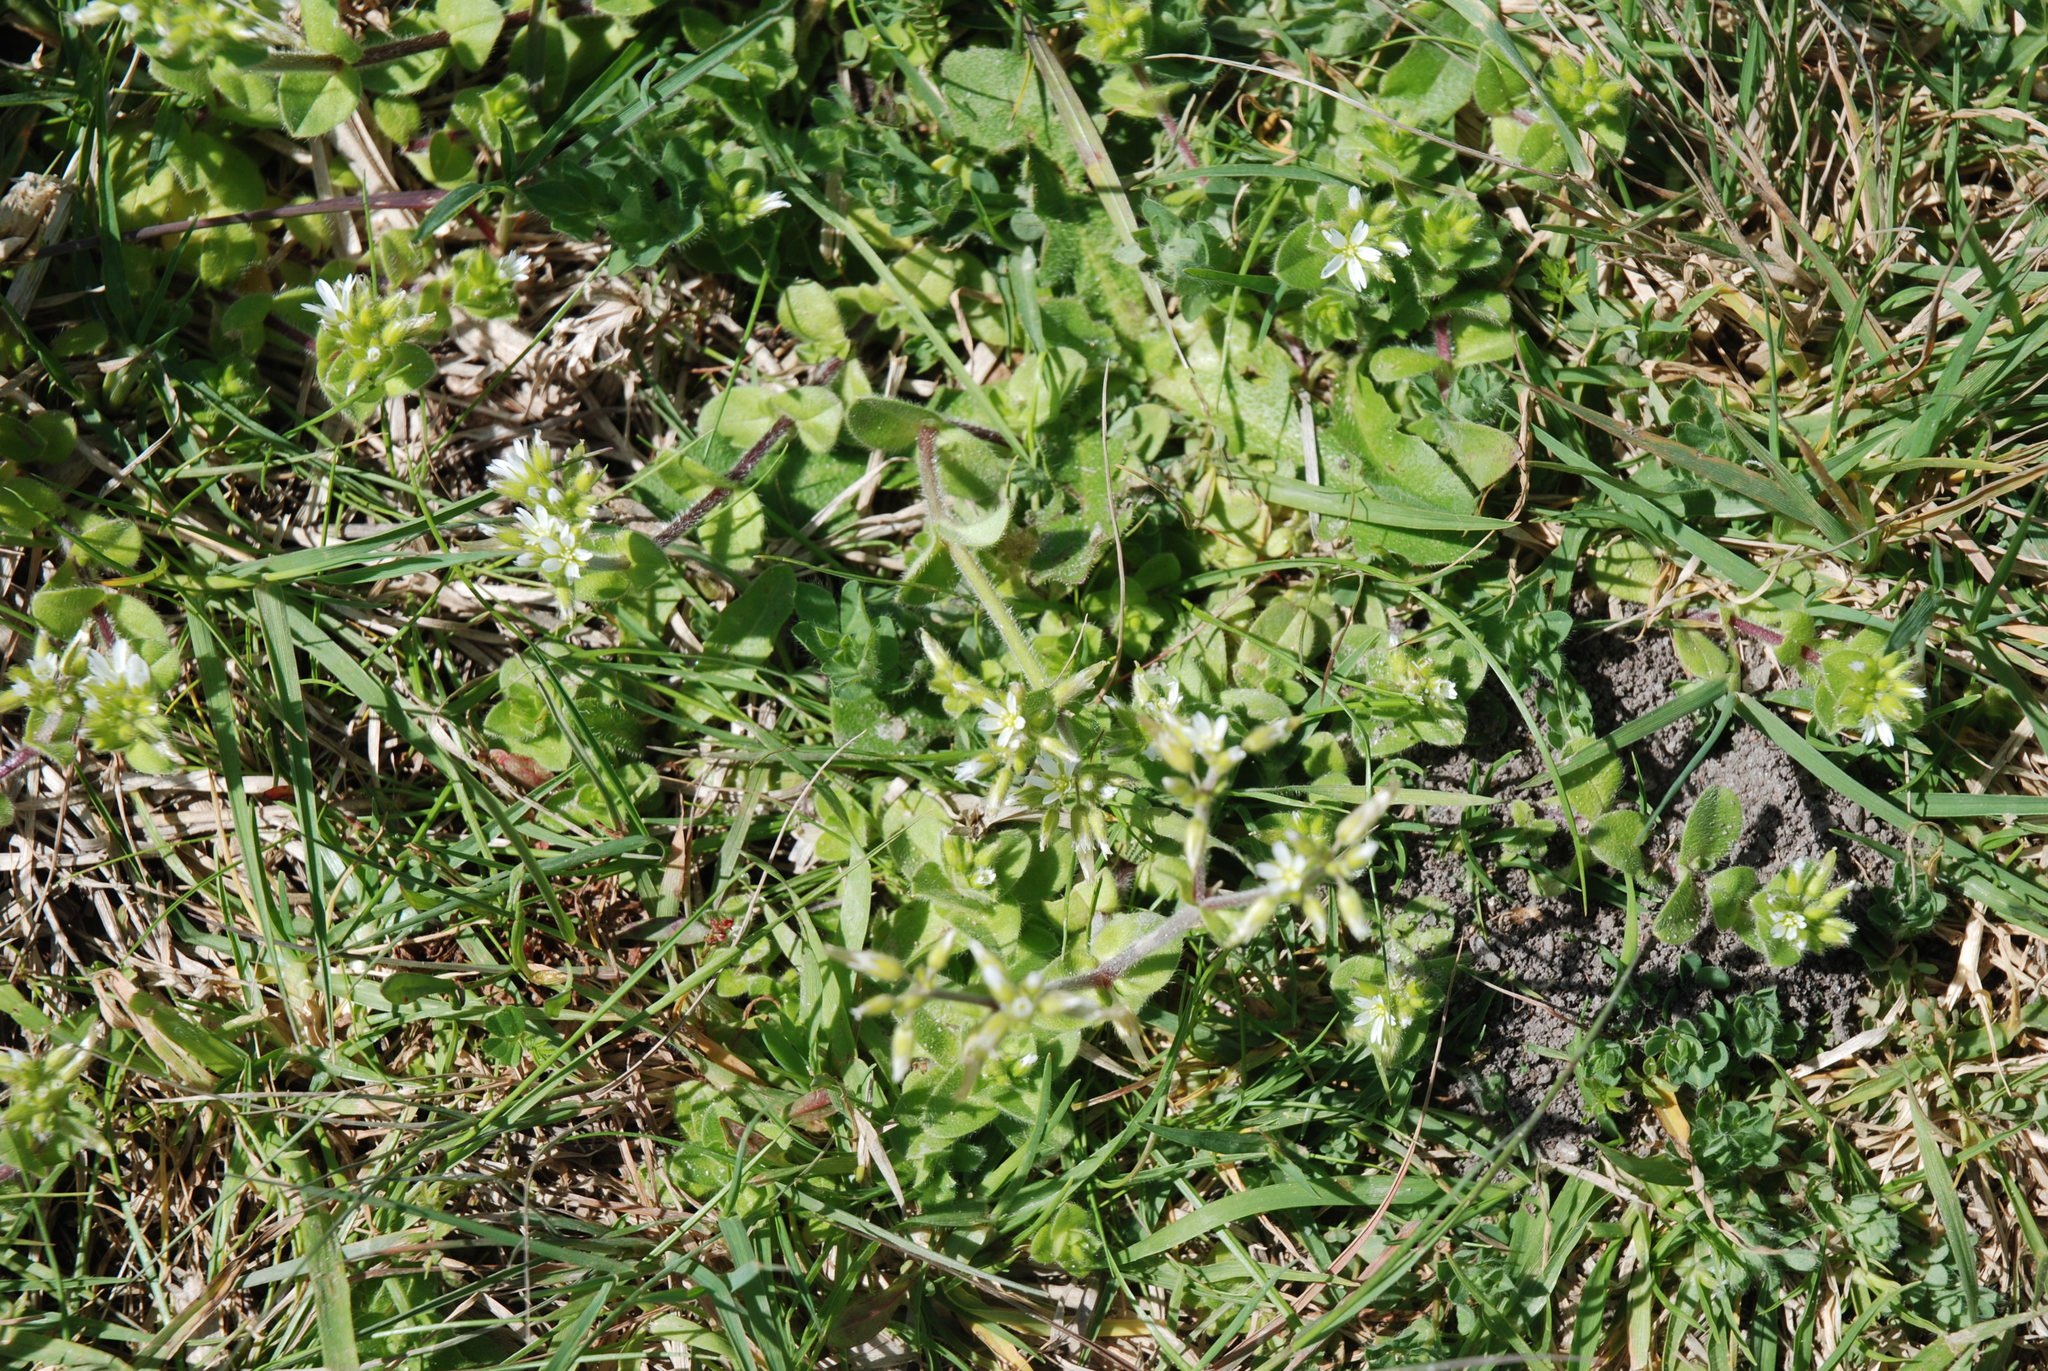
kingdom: Plantae
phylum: Tracheophyta
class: Magnoliopsida
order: Caryophyllales
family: Caryophyllaceae
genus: Cerastium
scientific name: Cerastium glomeratum
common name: Sticky chickweed
